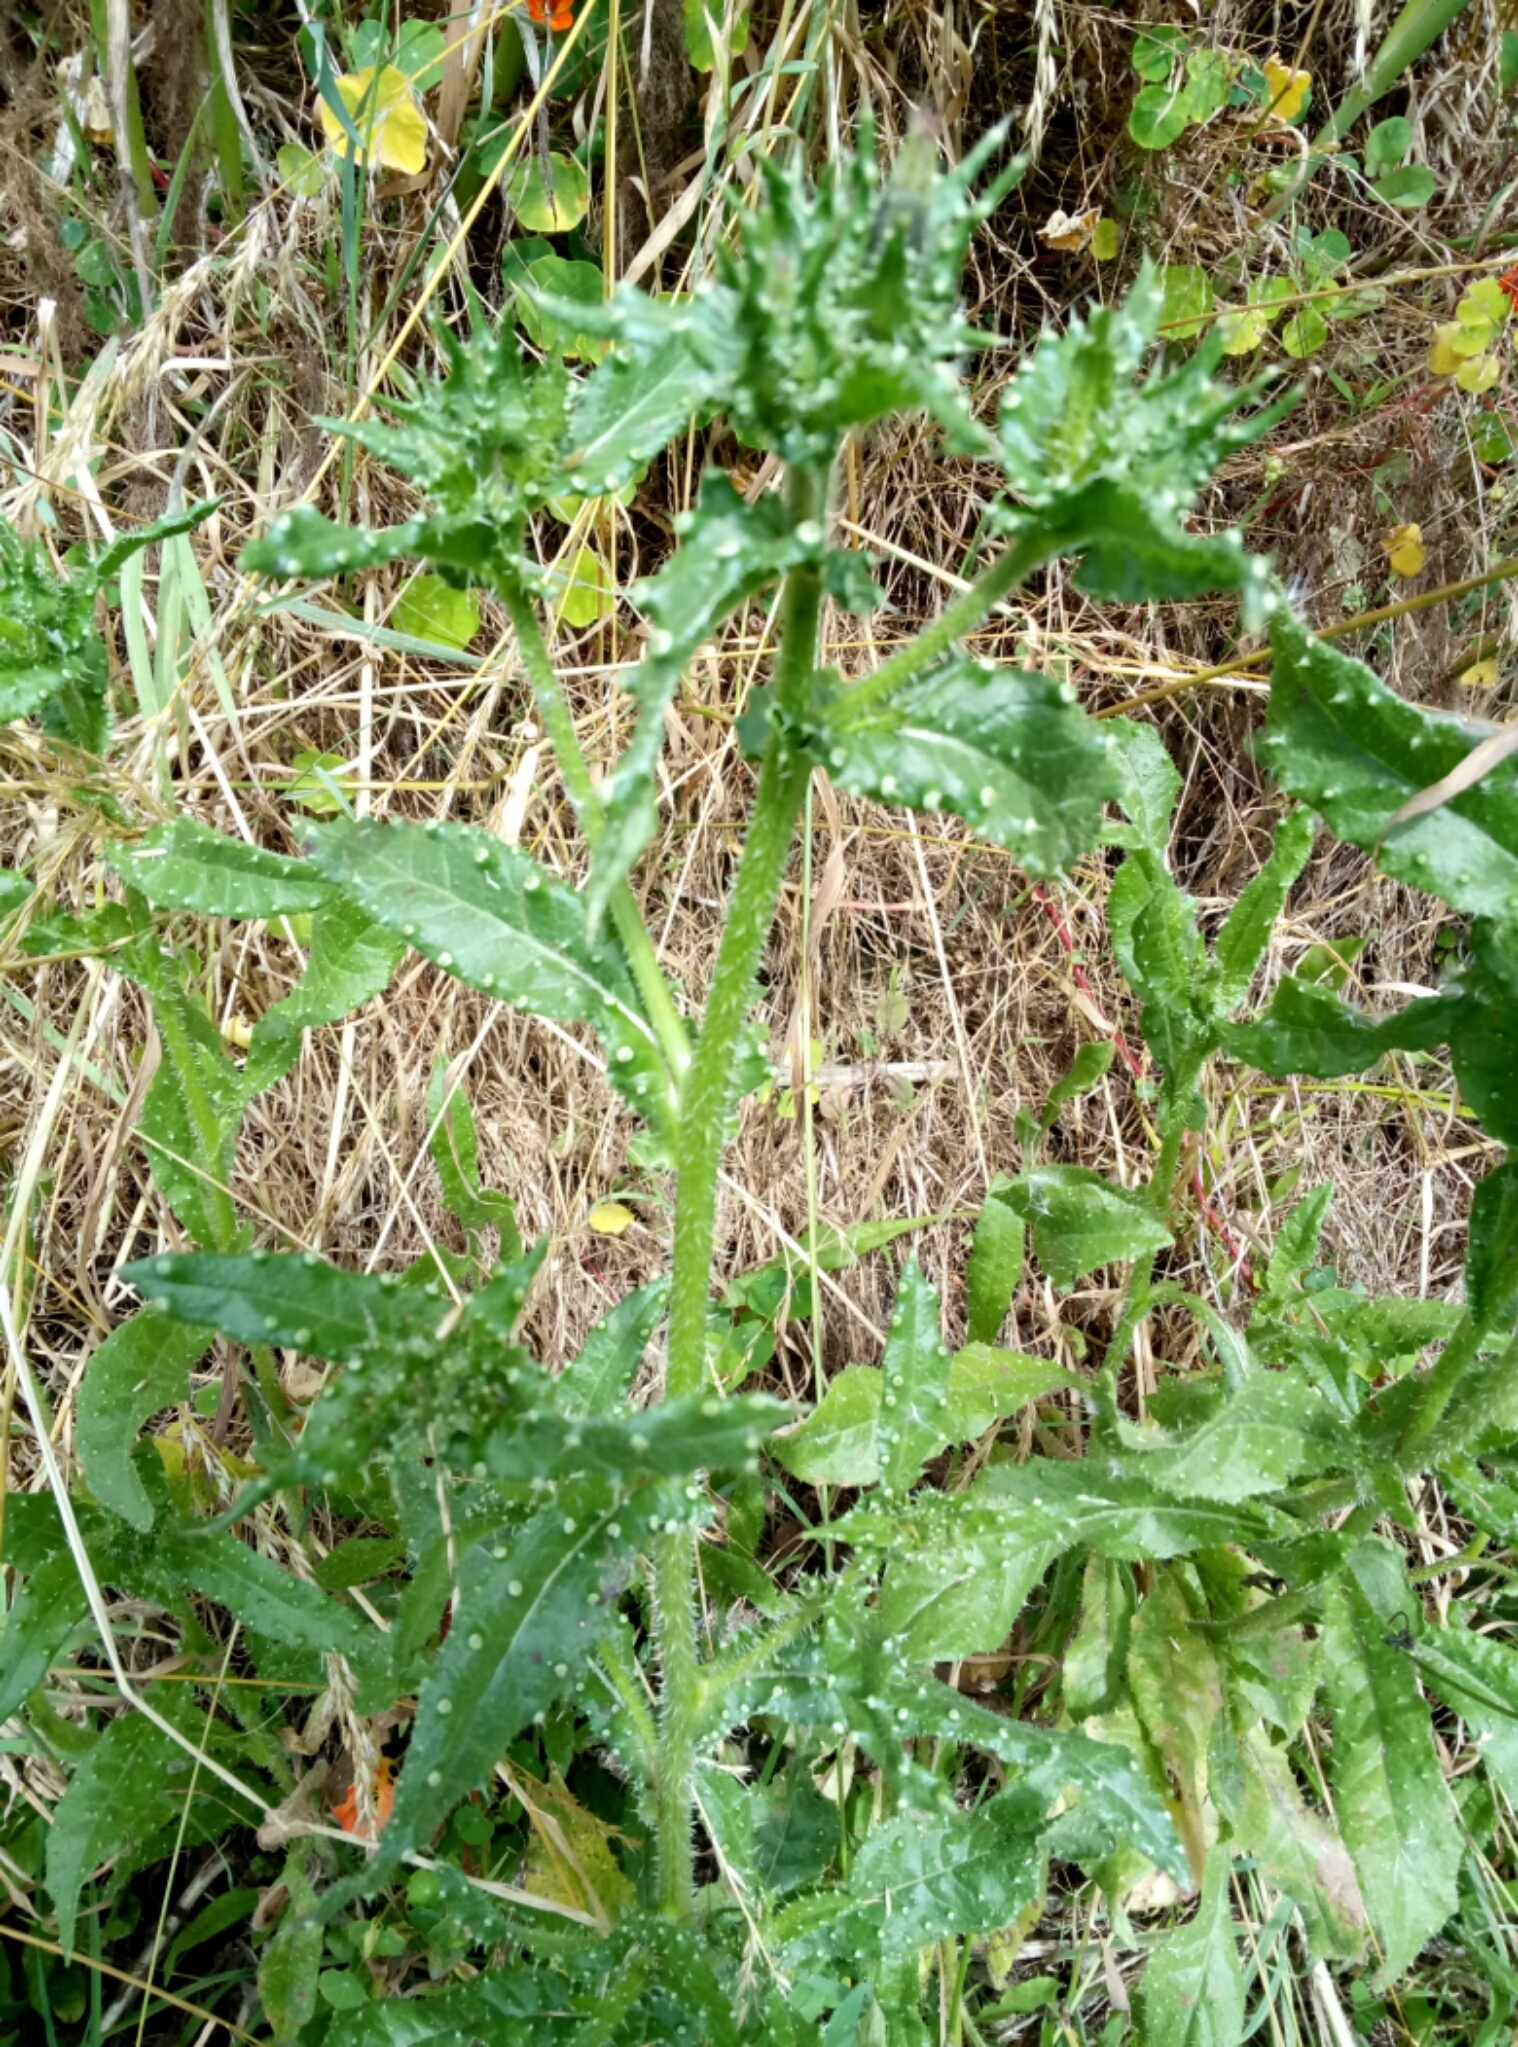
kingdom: Plantae
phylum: Tracheophyta
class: Magnoliopsida
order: Asterales
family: Asteraceae
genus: Helminthotheca
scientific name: Helminthotheca echioides
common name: Ox-tongue
